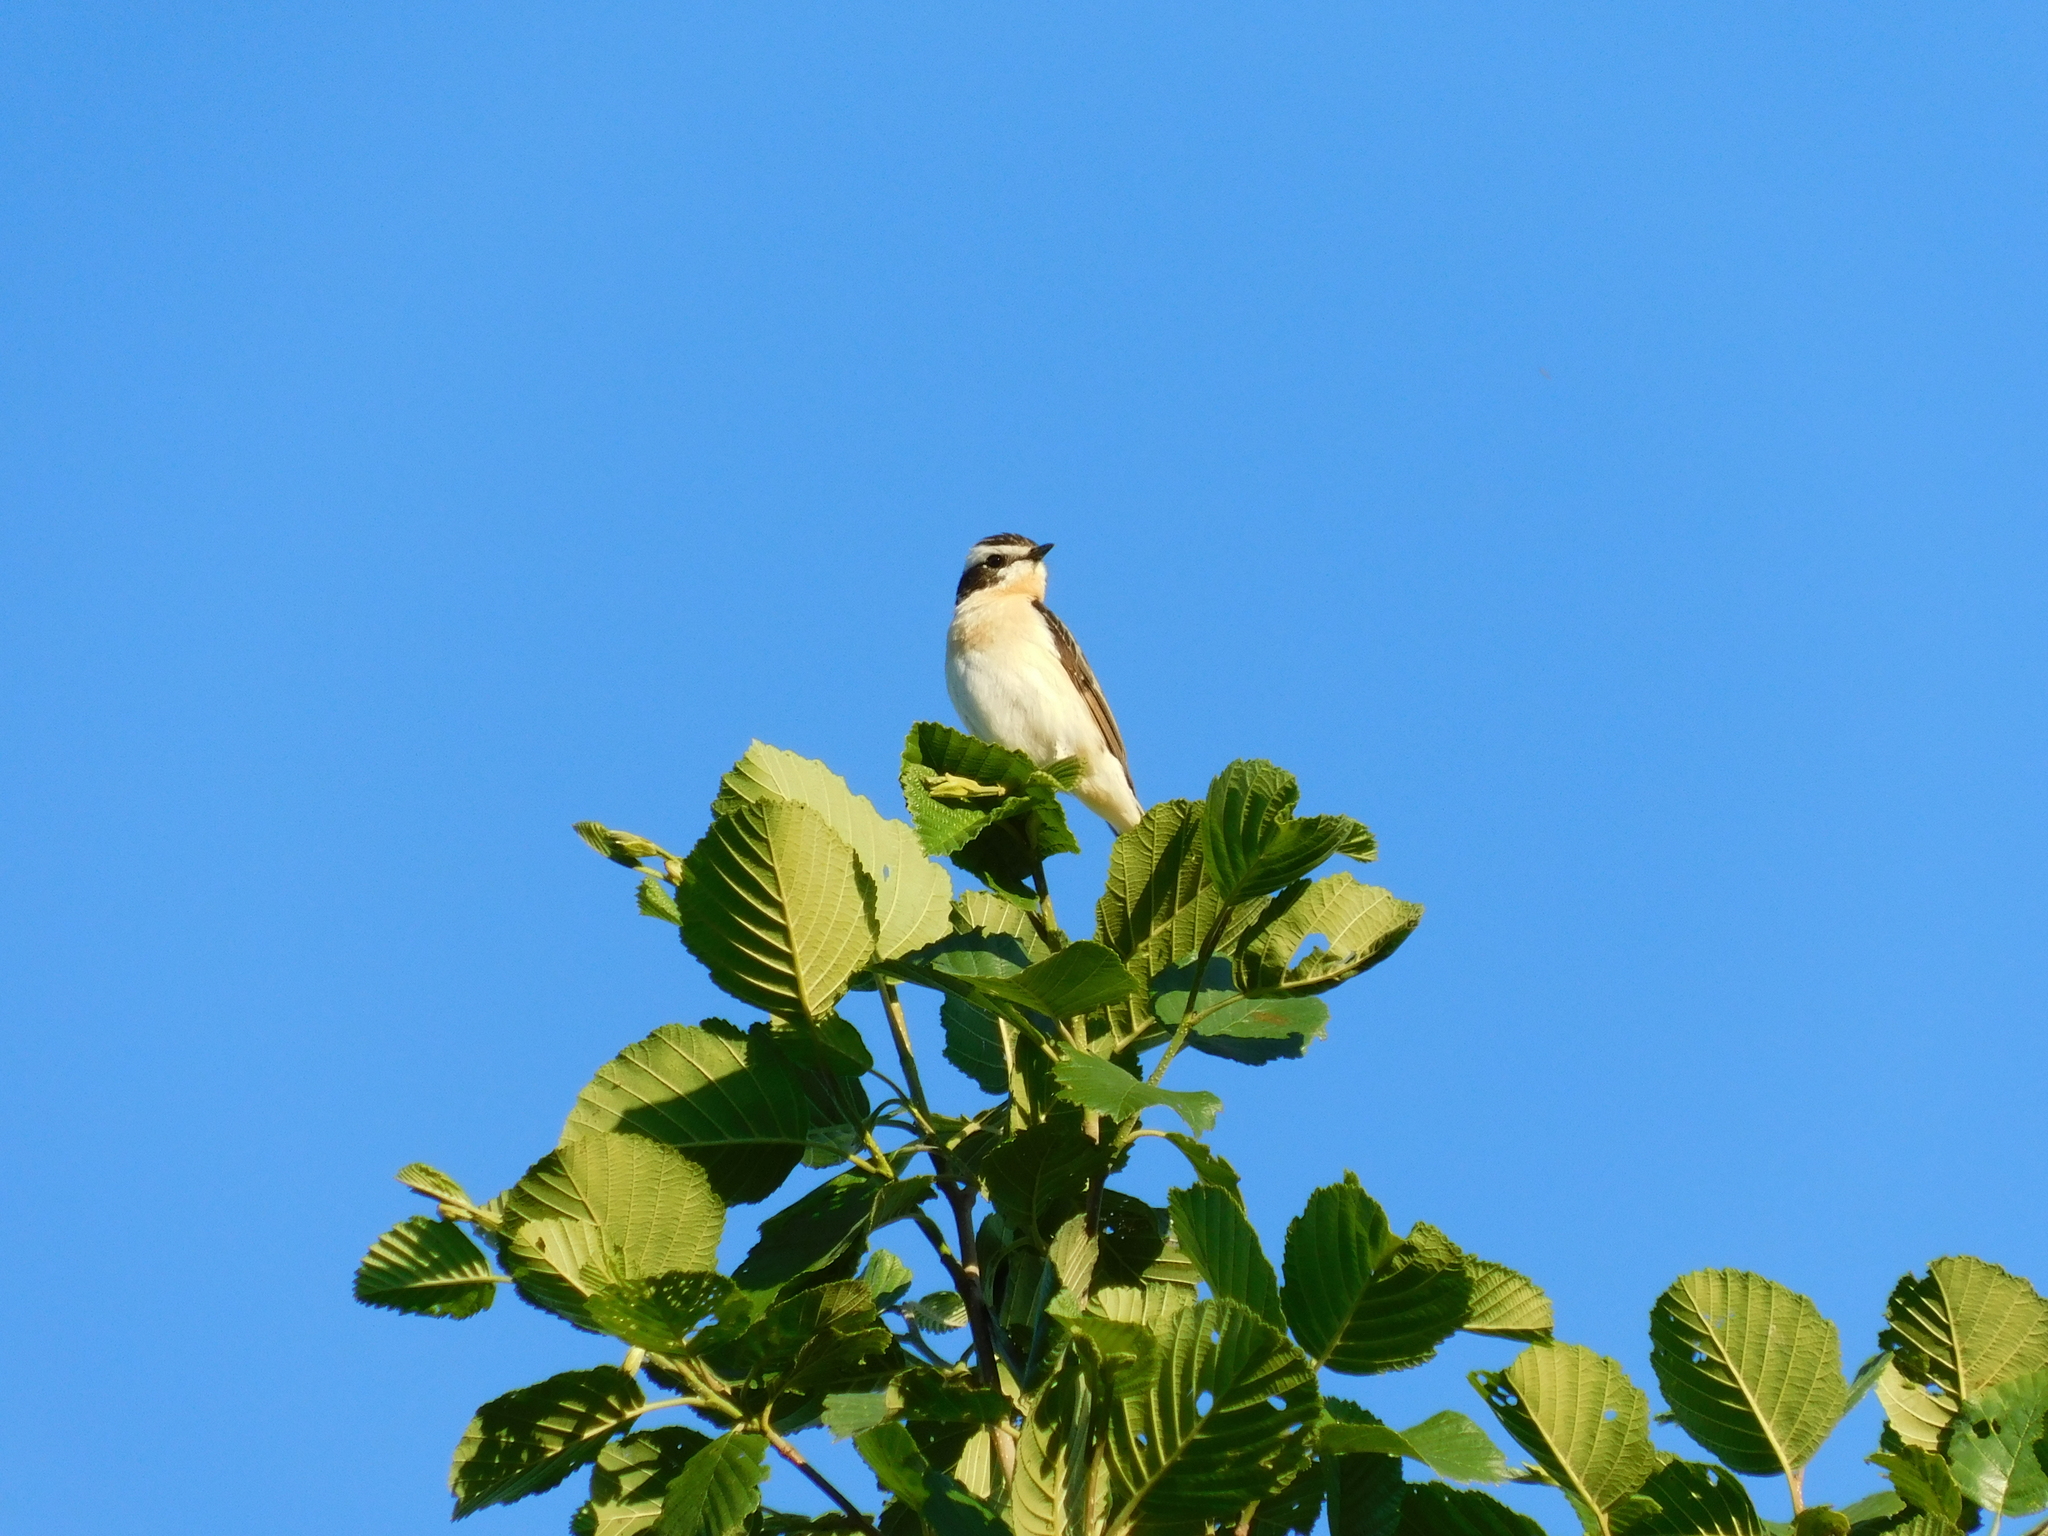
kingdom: Animalia
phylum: Chordata
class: Aves
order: Passeriformes
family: Muscicapidae
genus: Saxicola
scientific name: Saxicola rubetra
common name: Whinchat
